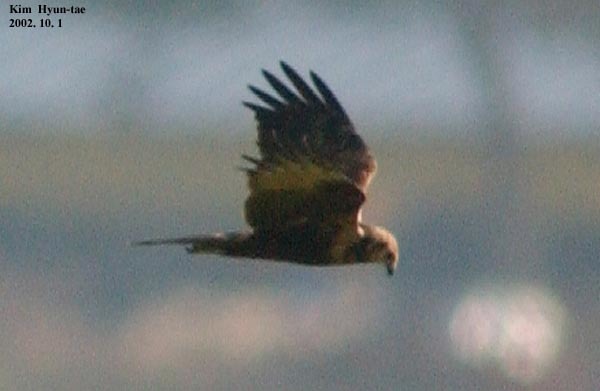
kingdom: Animalia
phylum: Chordata
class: Aves
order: Accipitriformes
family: Accipitridae
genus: Circus
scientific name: Circus spilonotus
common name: Eastern marsh-harrier
